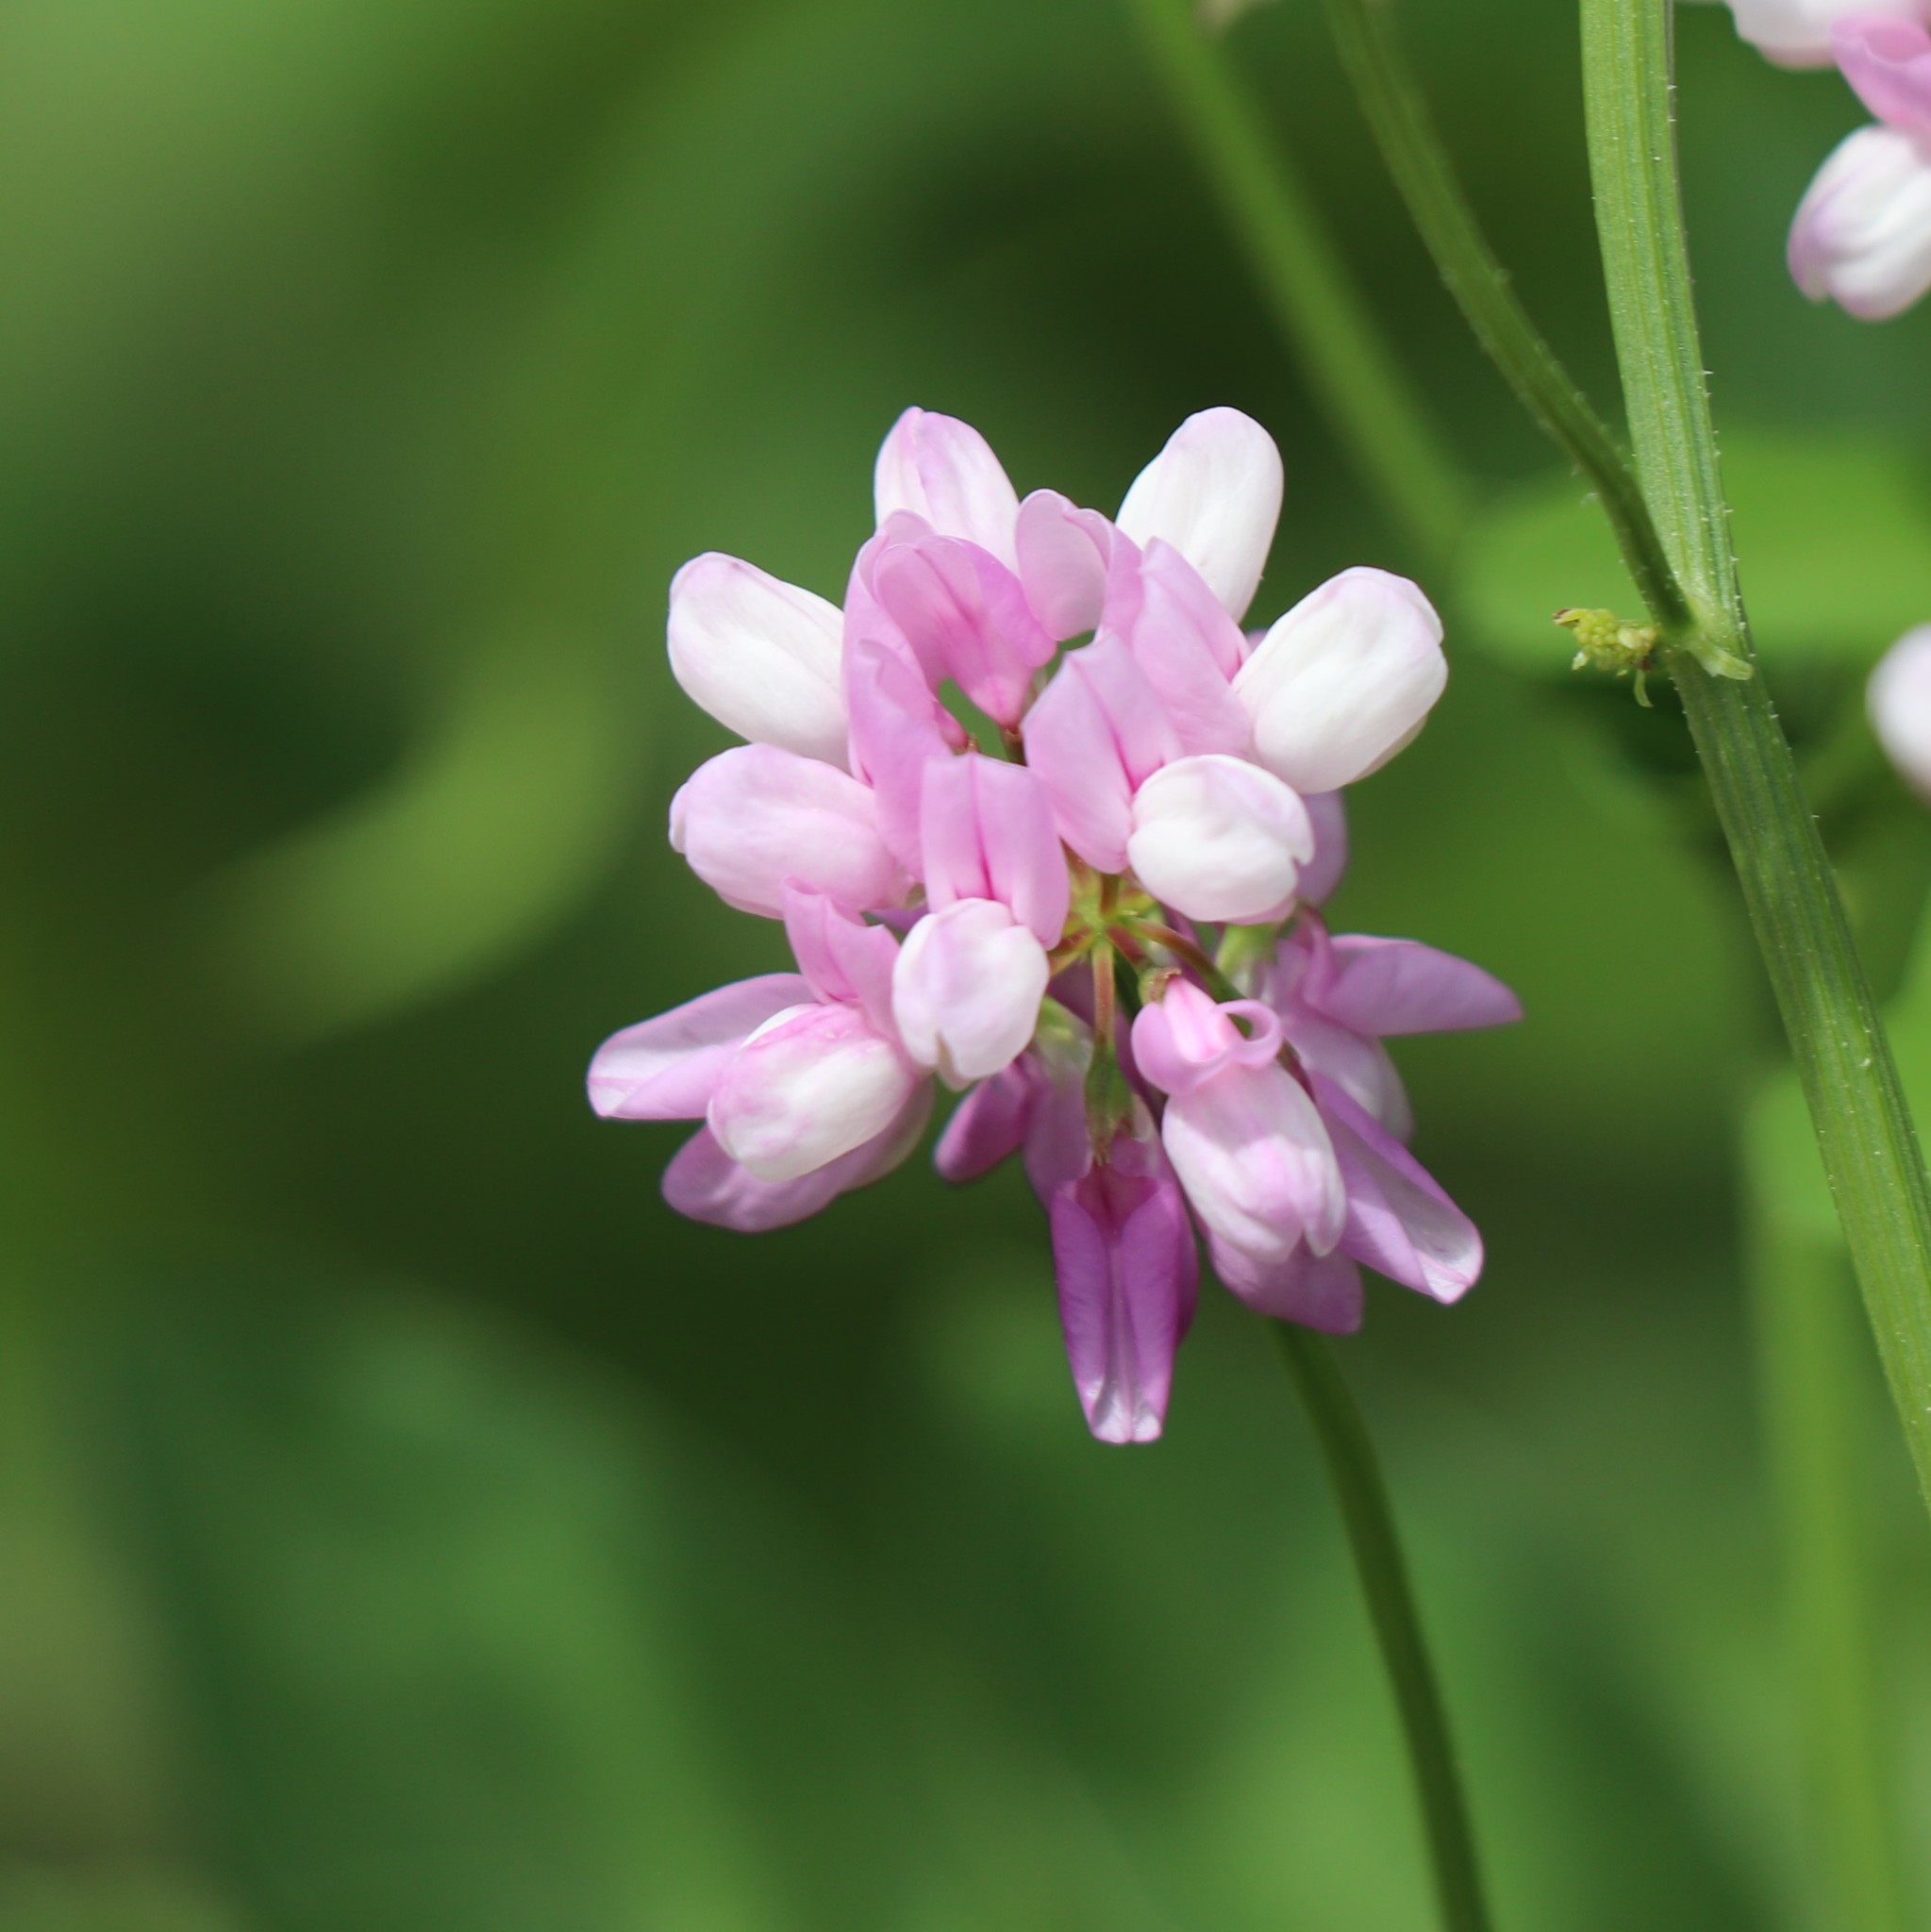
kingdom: Plantae
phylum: Tracheophyta
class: Magnoliopsida
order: Fabales
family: Fabaceae
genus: Coronilla
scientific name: Coronilla varia
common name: Crownvetch
